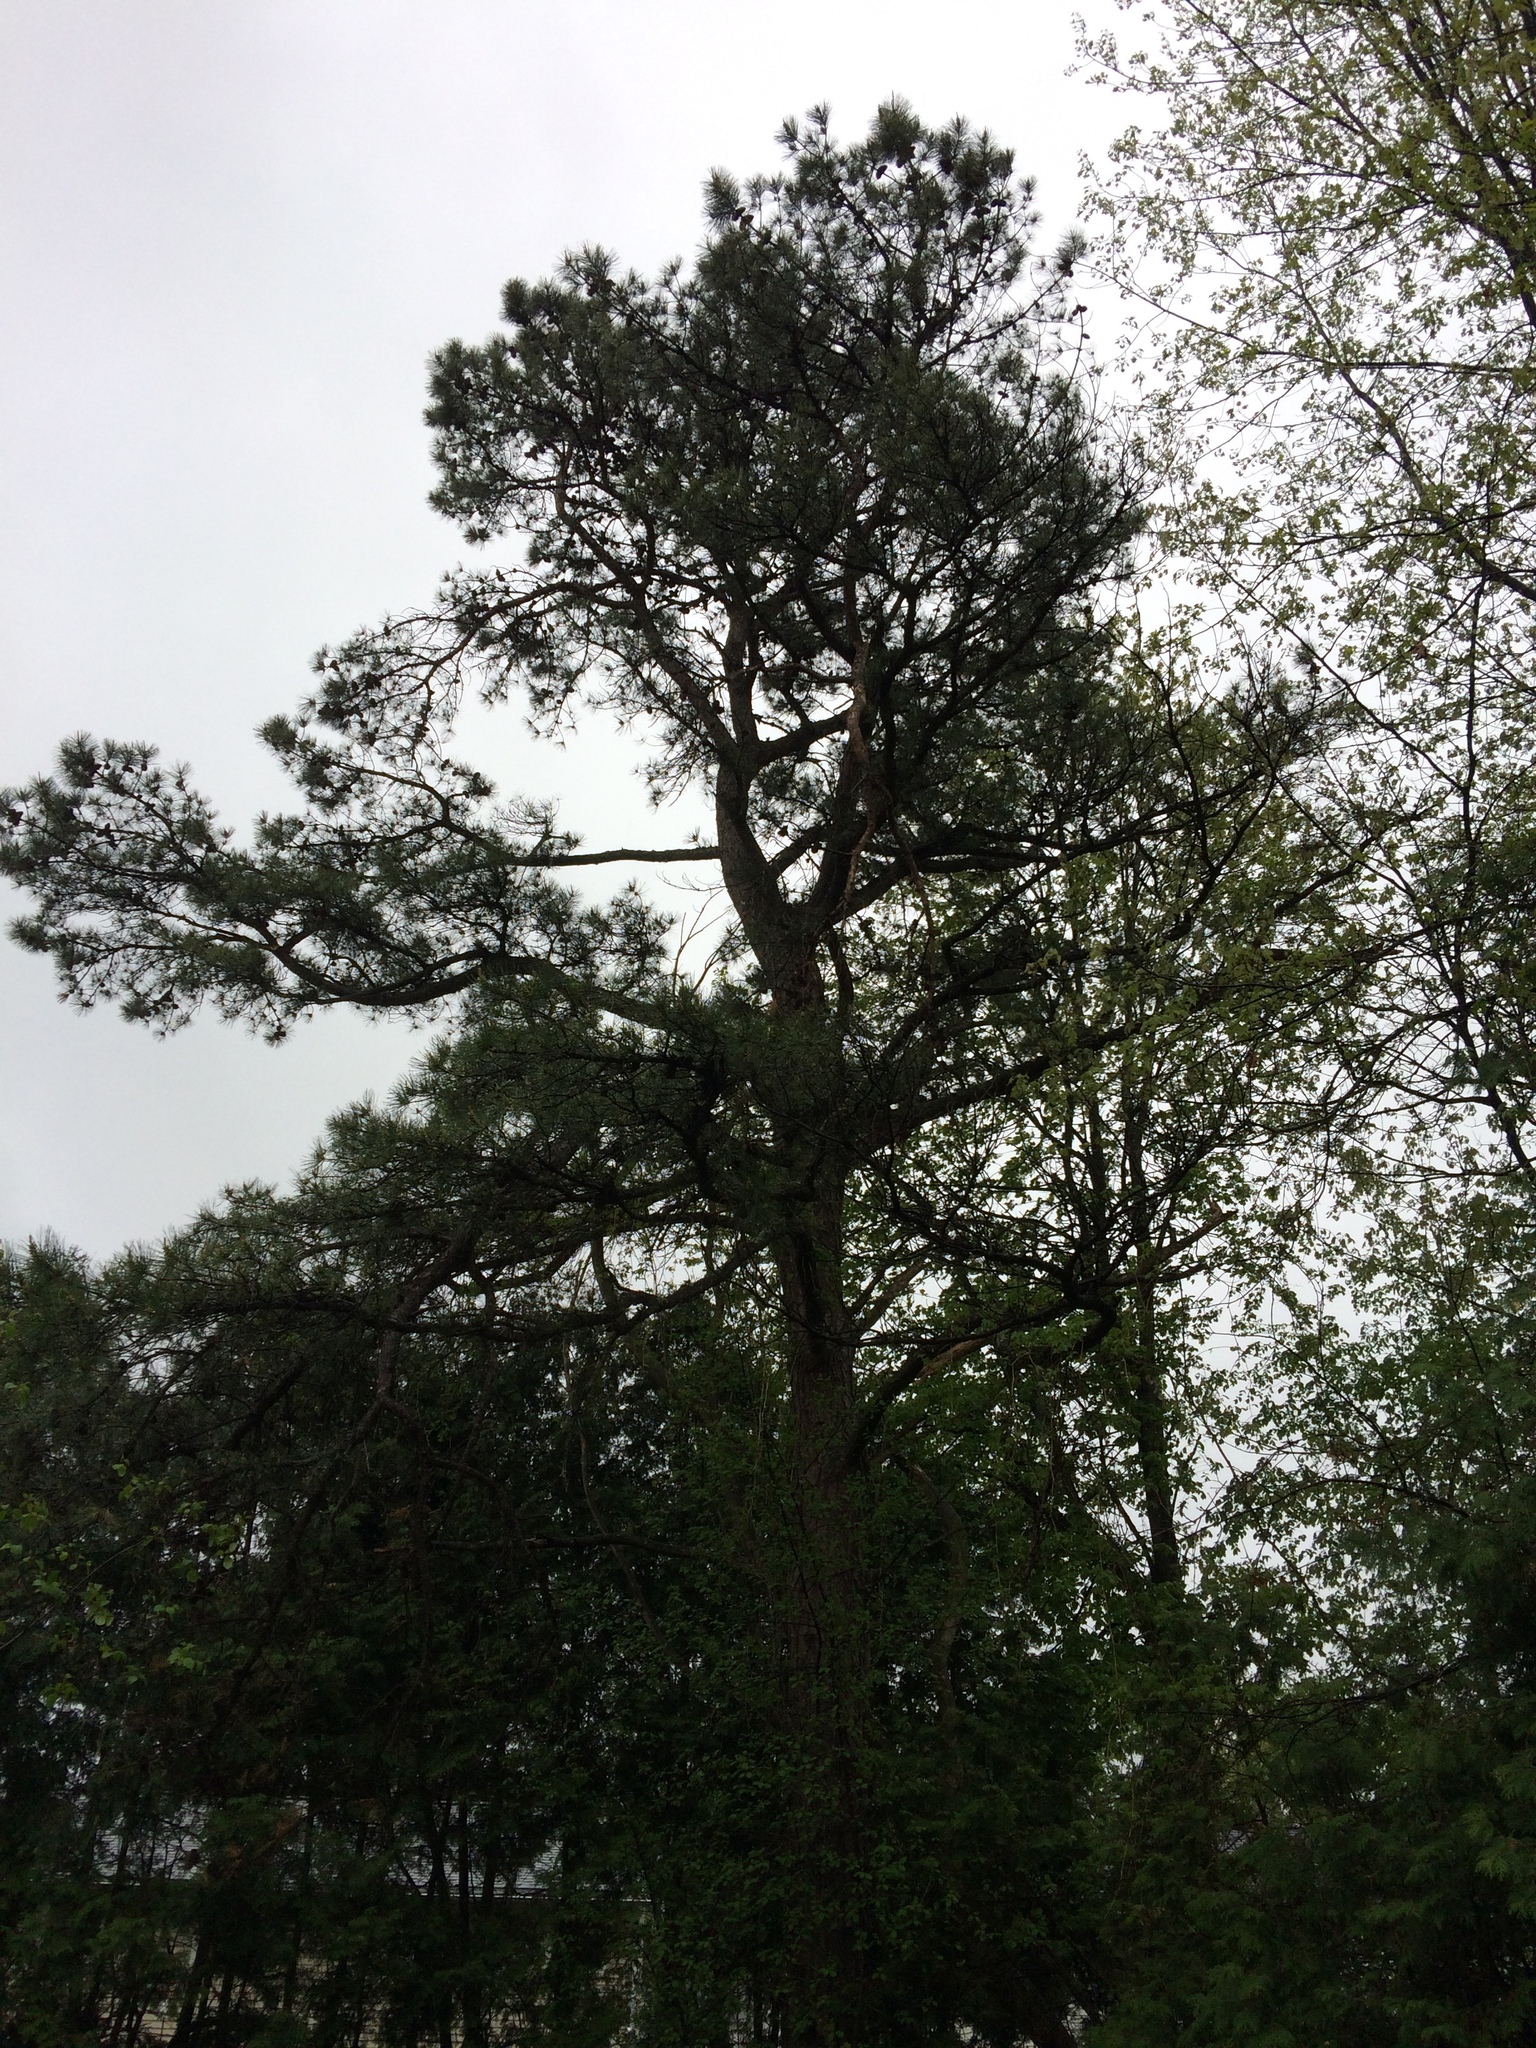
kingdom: Plantae
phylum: Tracheophyta
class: Pinopsida
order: Pinales
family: Pinaceae
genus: Pinus
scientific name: Pinus rigida
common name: Pitch pine
